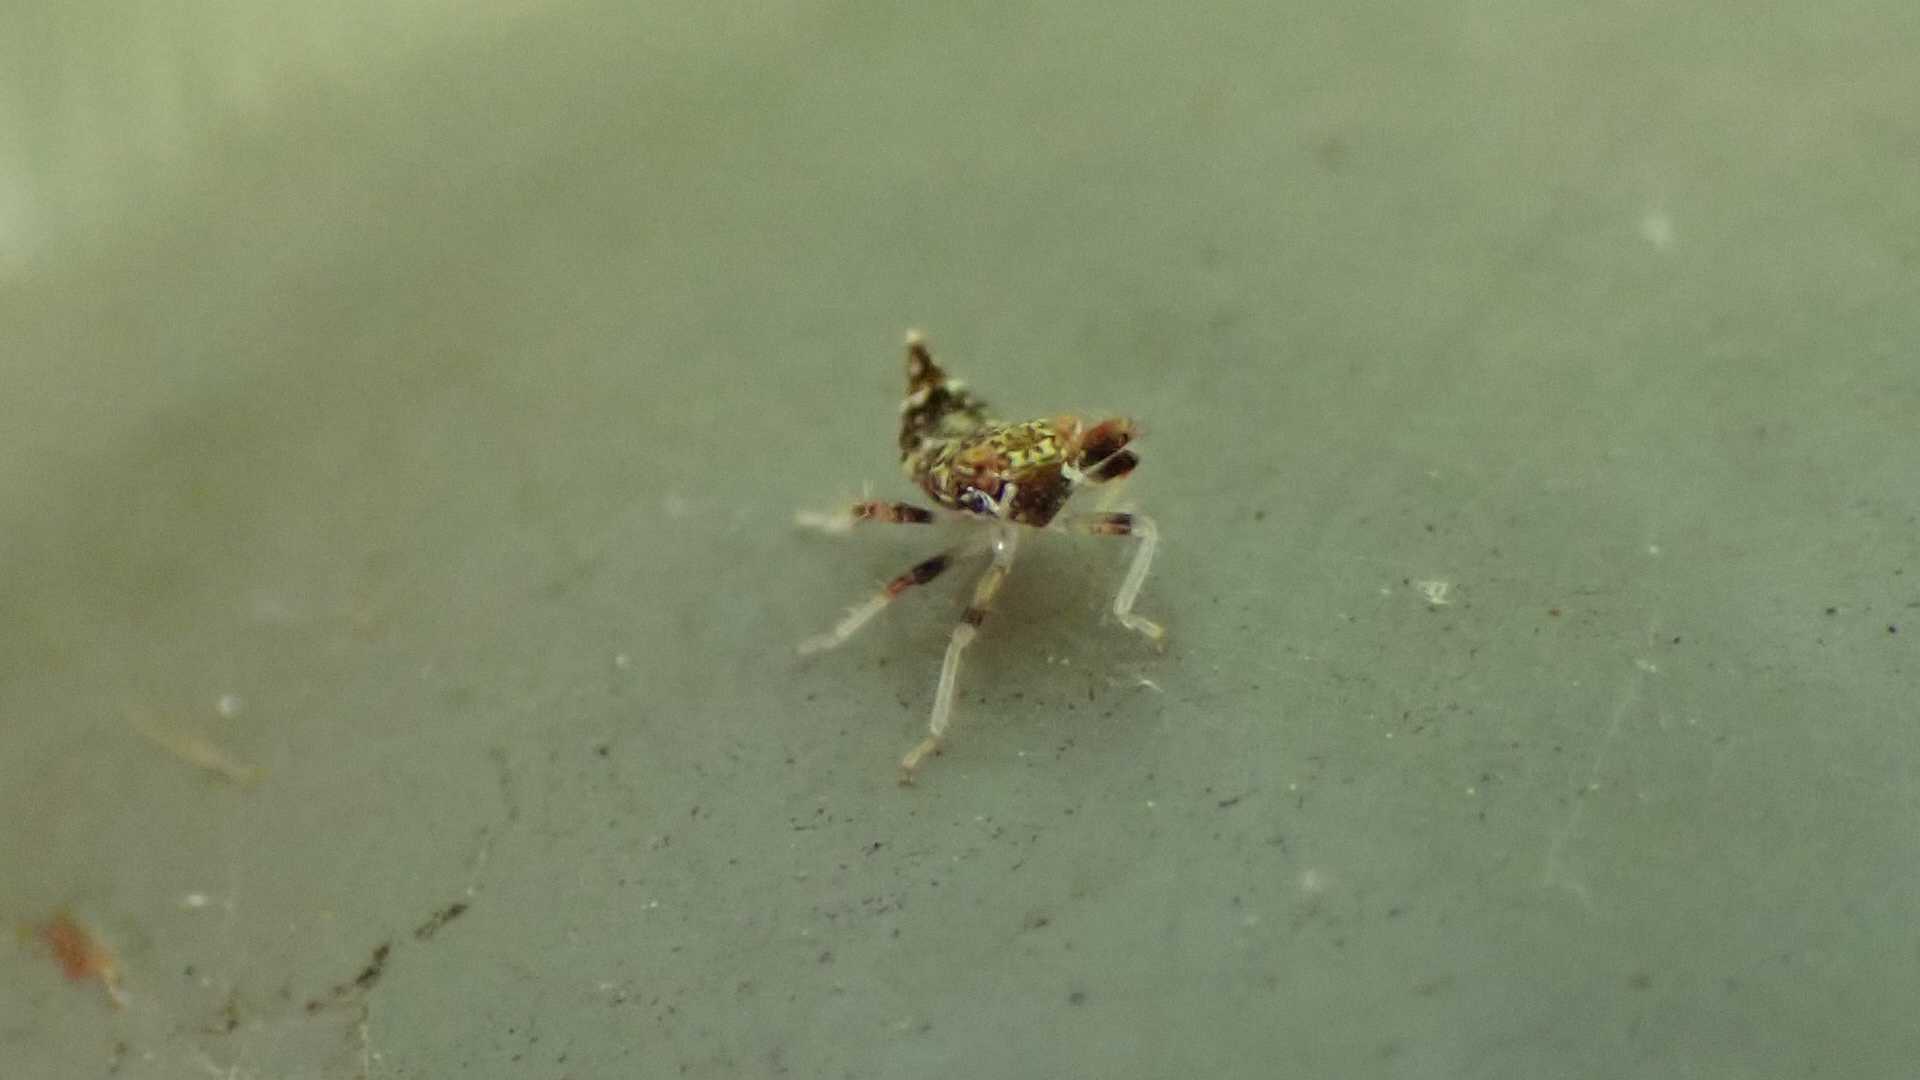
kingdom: Animalia
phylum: Arthropoda
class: Insecta
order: Hemiptera
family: Cicadellidae
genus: Orientus
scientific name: Orientus ishidae
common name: Japanese leafhopper
